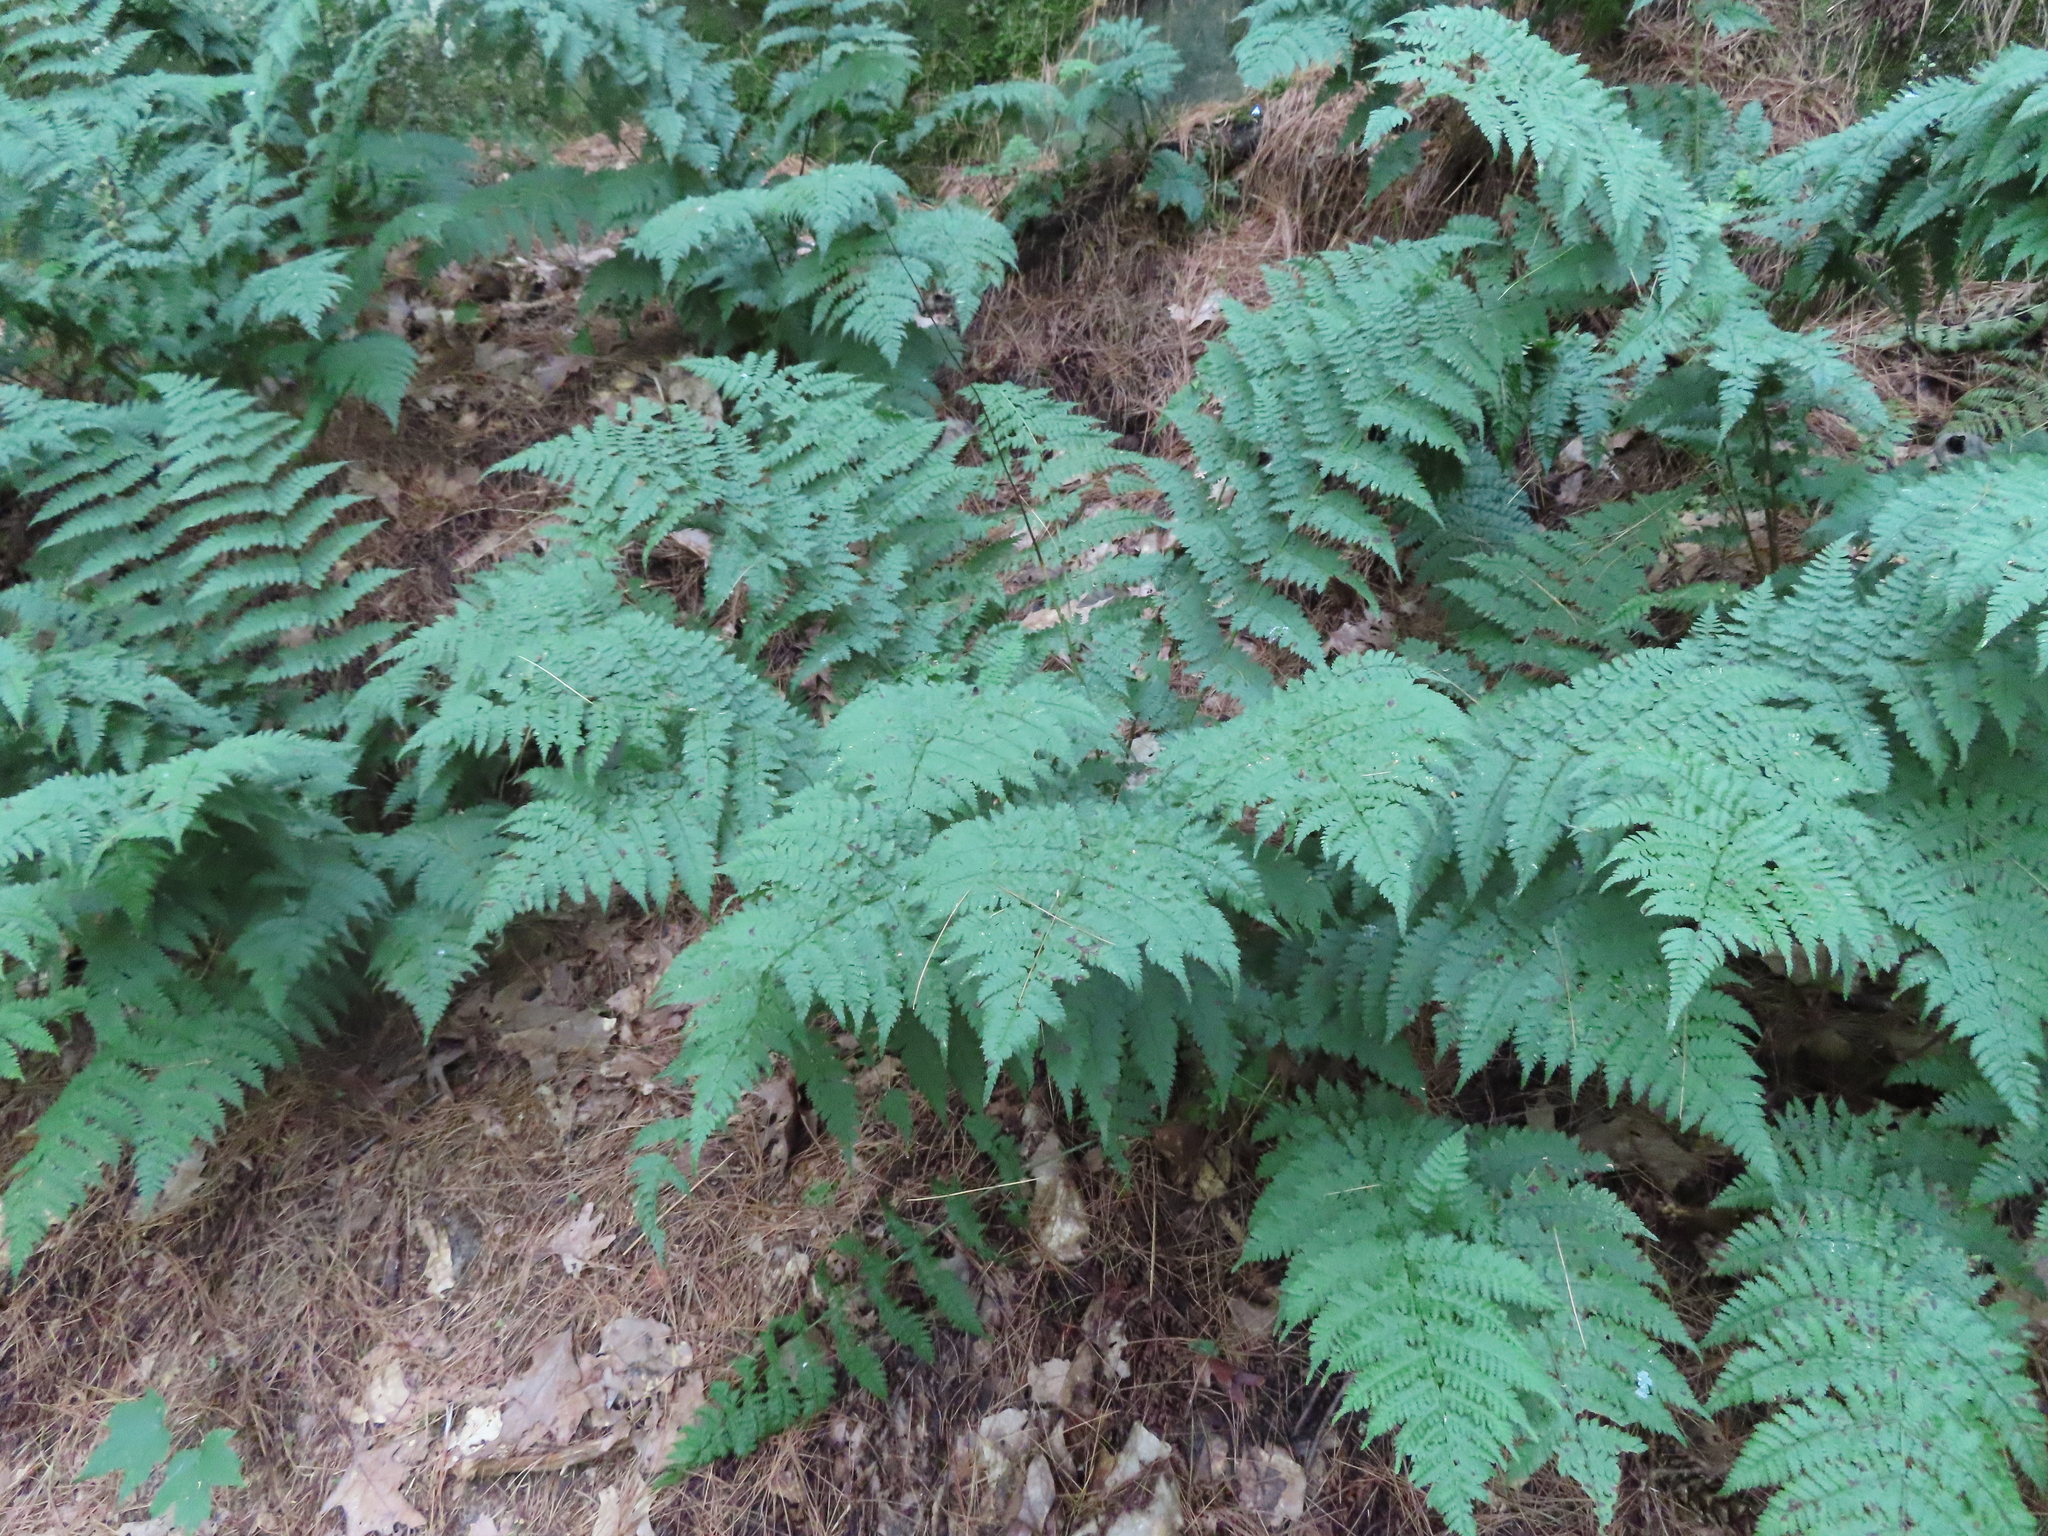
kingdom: Plantae
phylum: Tracheophyta
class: Polypodiopsida
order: Polypodiales
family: Dryopteridaceae
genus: Dryopteris
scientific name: Dryopteris intermedia
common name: Evergreen wood fern
